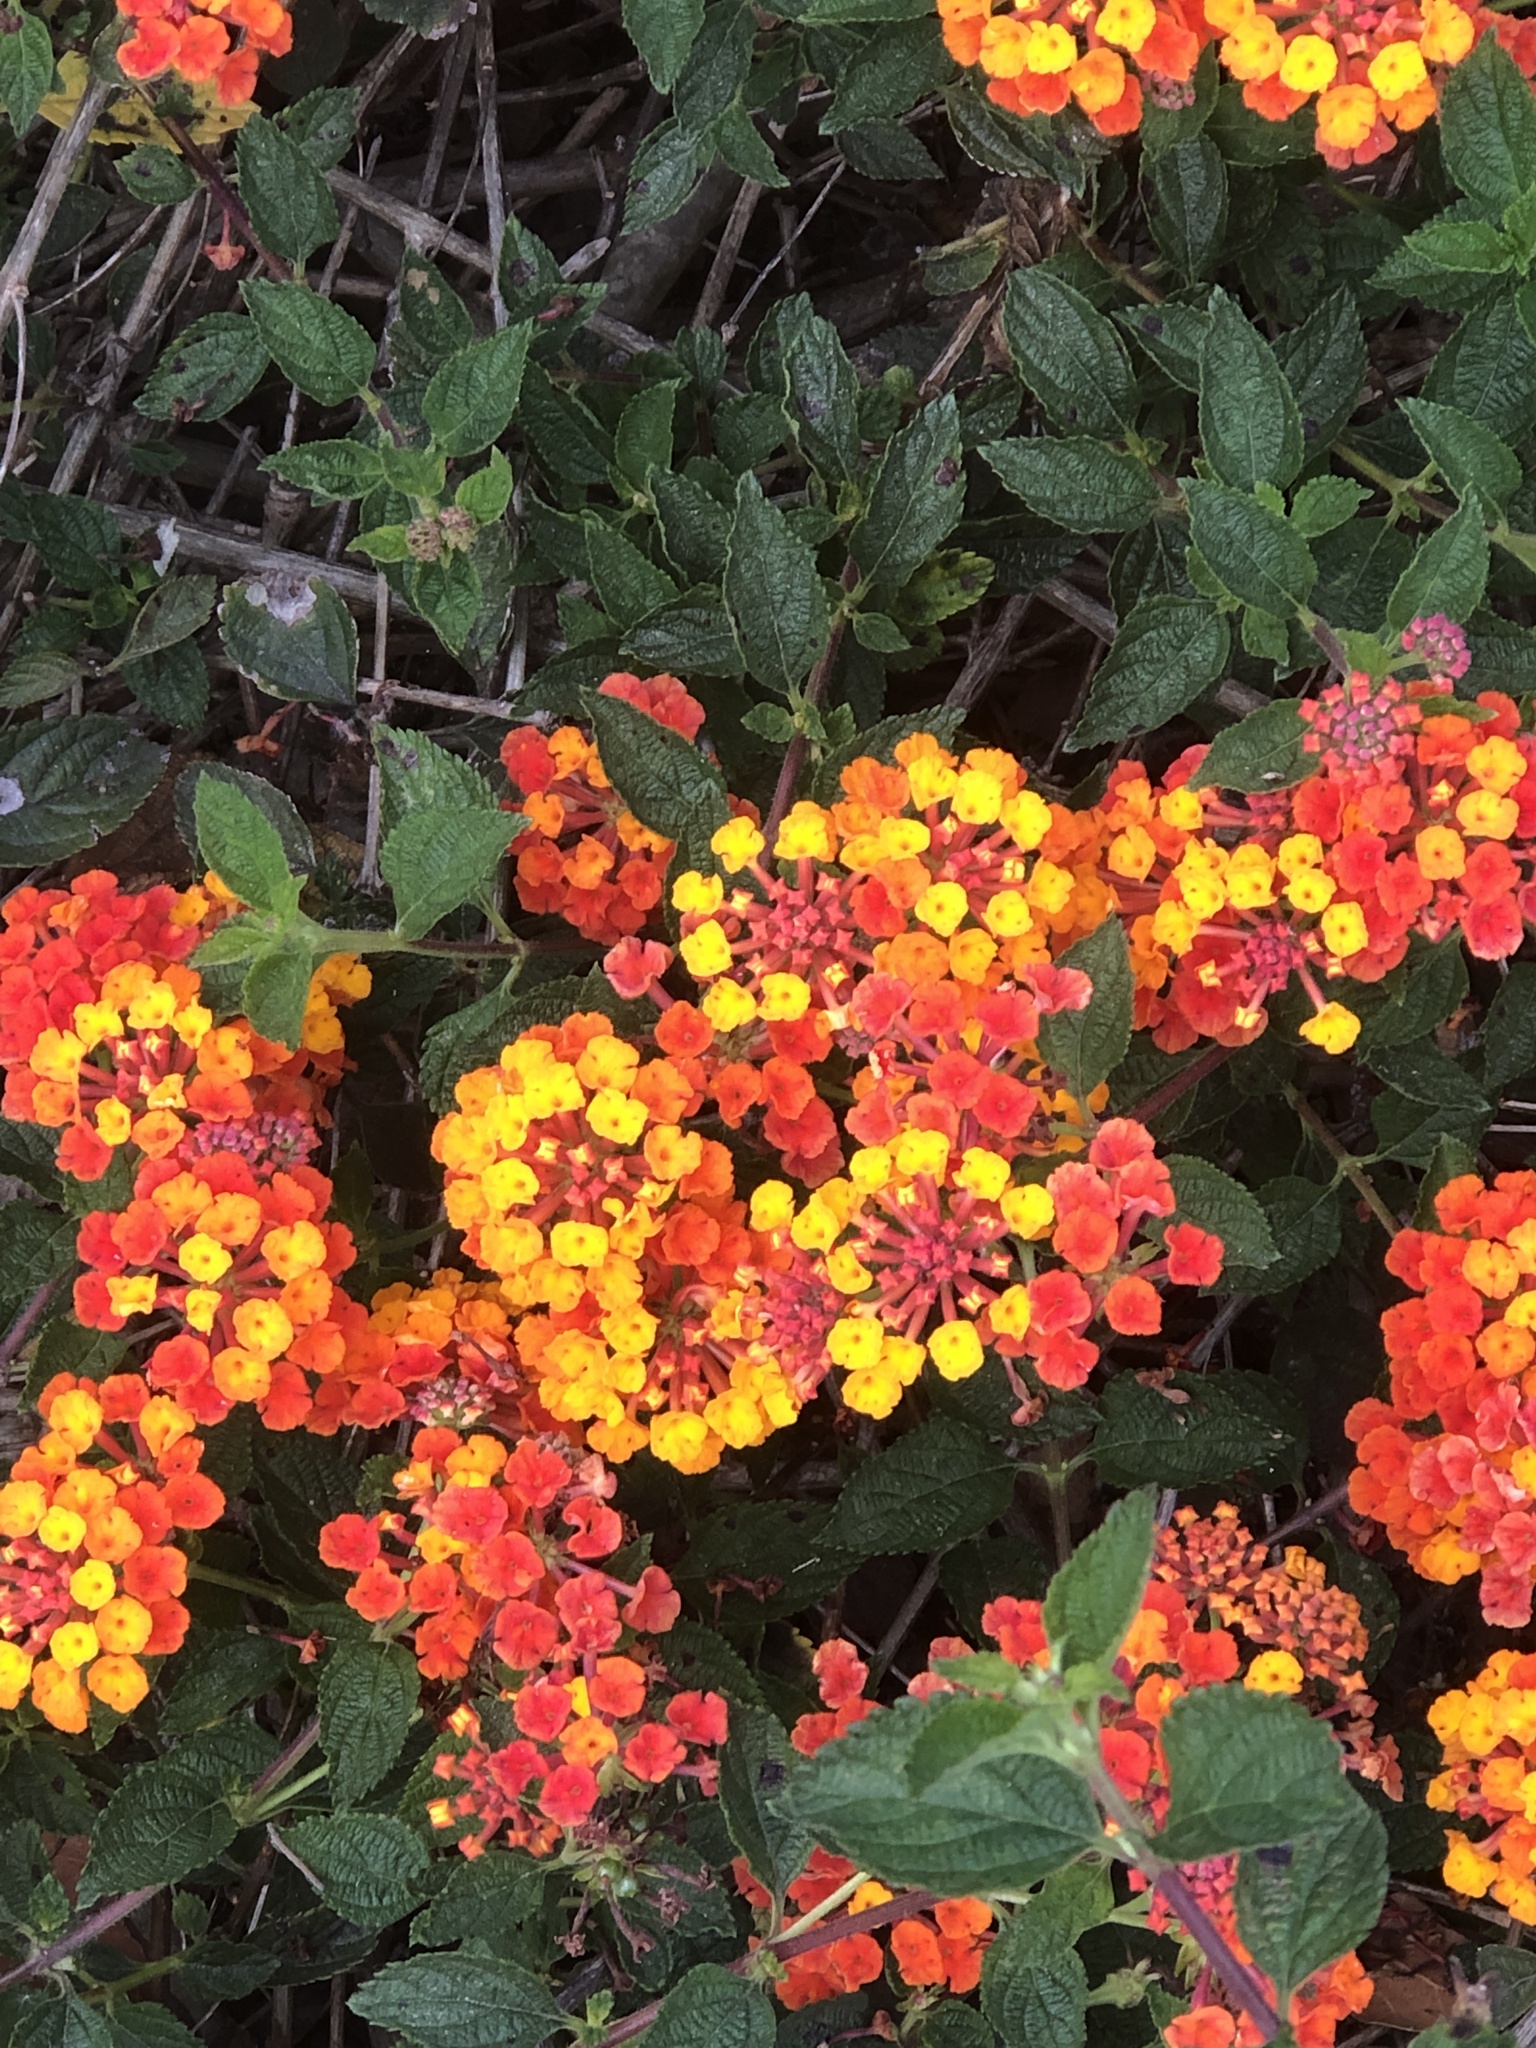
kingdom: Plantae
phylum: Tracheophyta
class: Magnoliopsida
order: Lamiales
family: Verbenaceae
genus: Lantana
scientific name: Lantana camara
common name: Lantana
